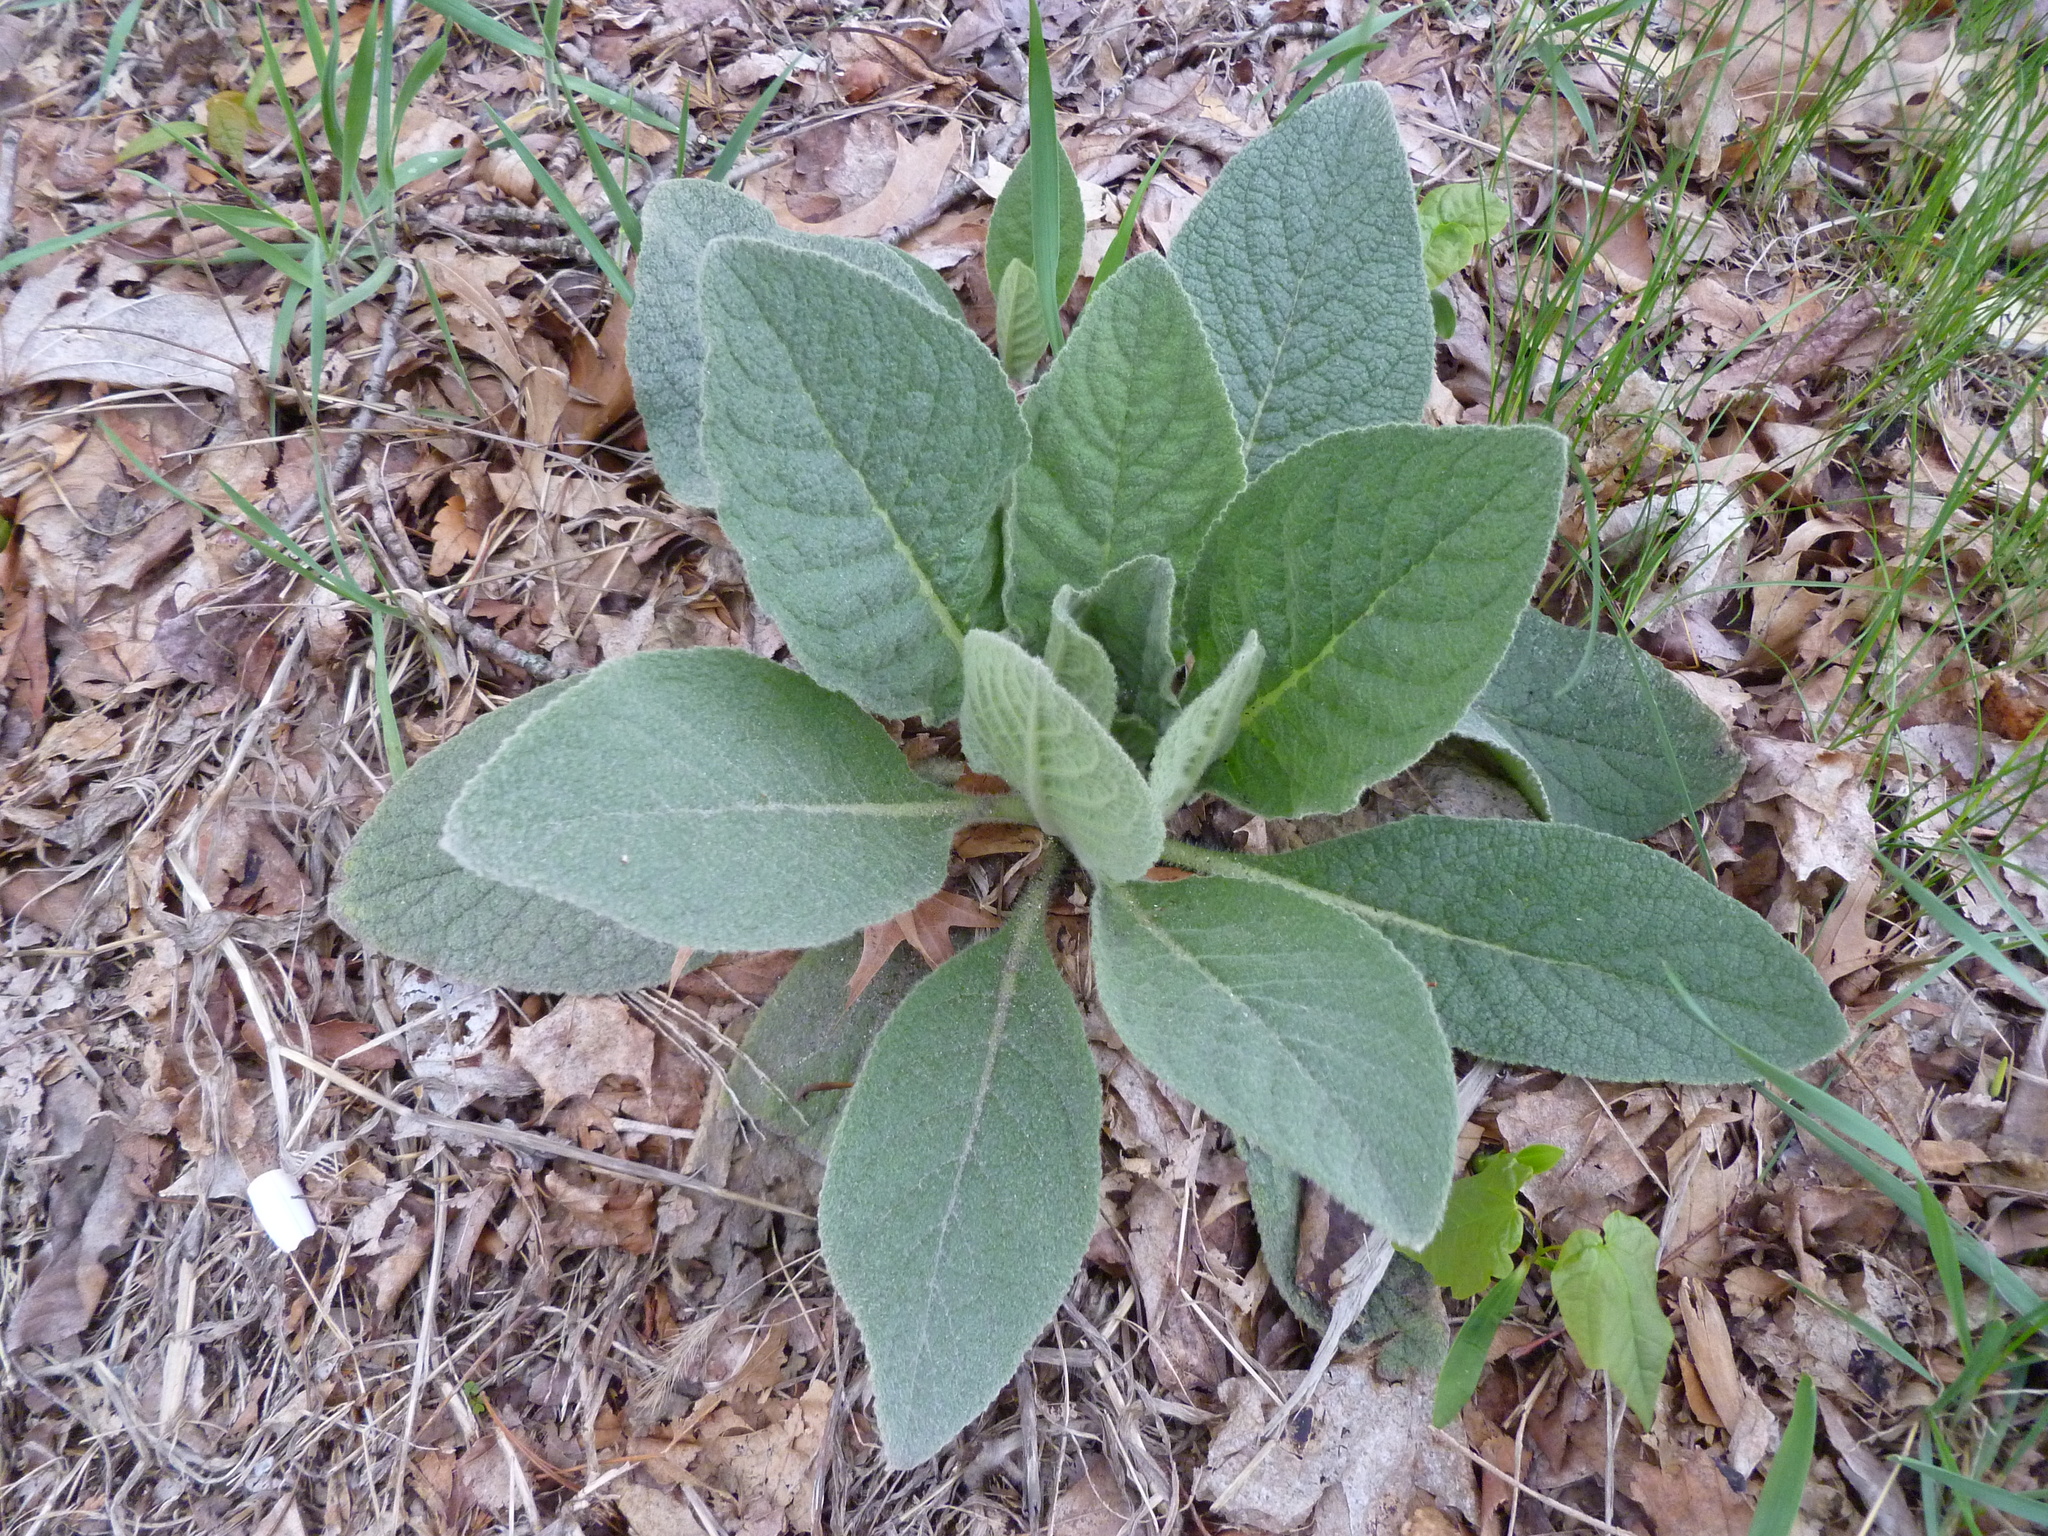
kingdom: Plantae
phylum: Tracheophyta
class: Magnoliopsida
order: Lamiales
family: Scrophulariaceae
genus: Verbascum
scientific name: Verbascum thapsus
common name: Common mullein
